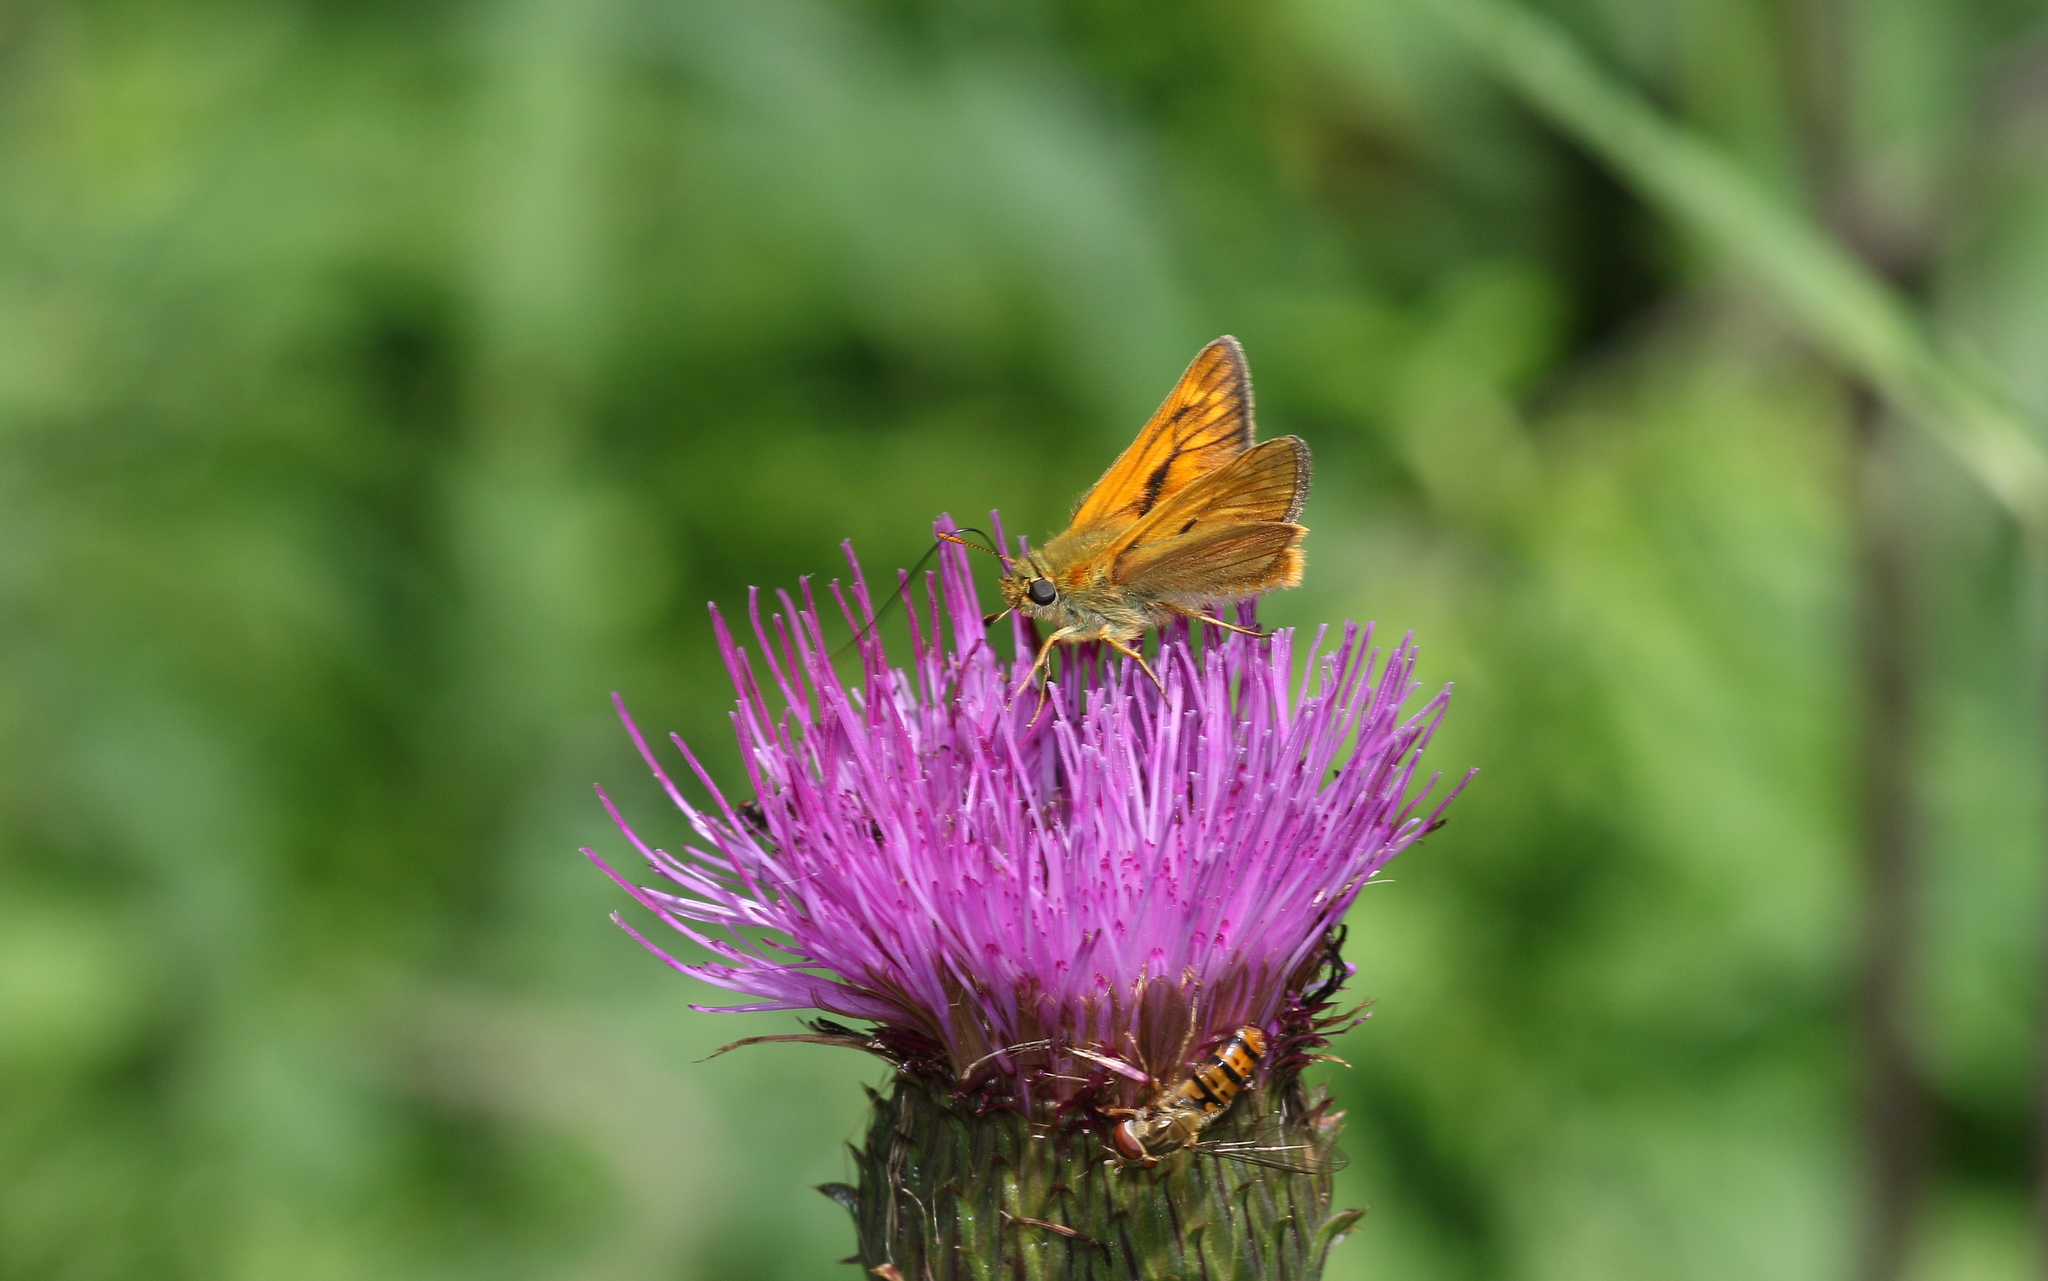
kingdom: Animalia
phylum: Arthropoda
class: Insecta
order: Lepidoptera
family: Hesperiidae
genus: Ochlodes
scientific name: Ochlodes venata
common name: Large skipper
